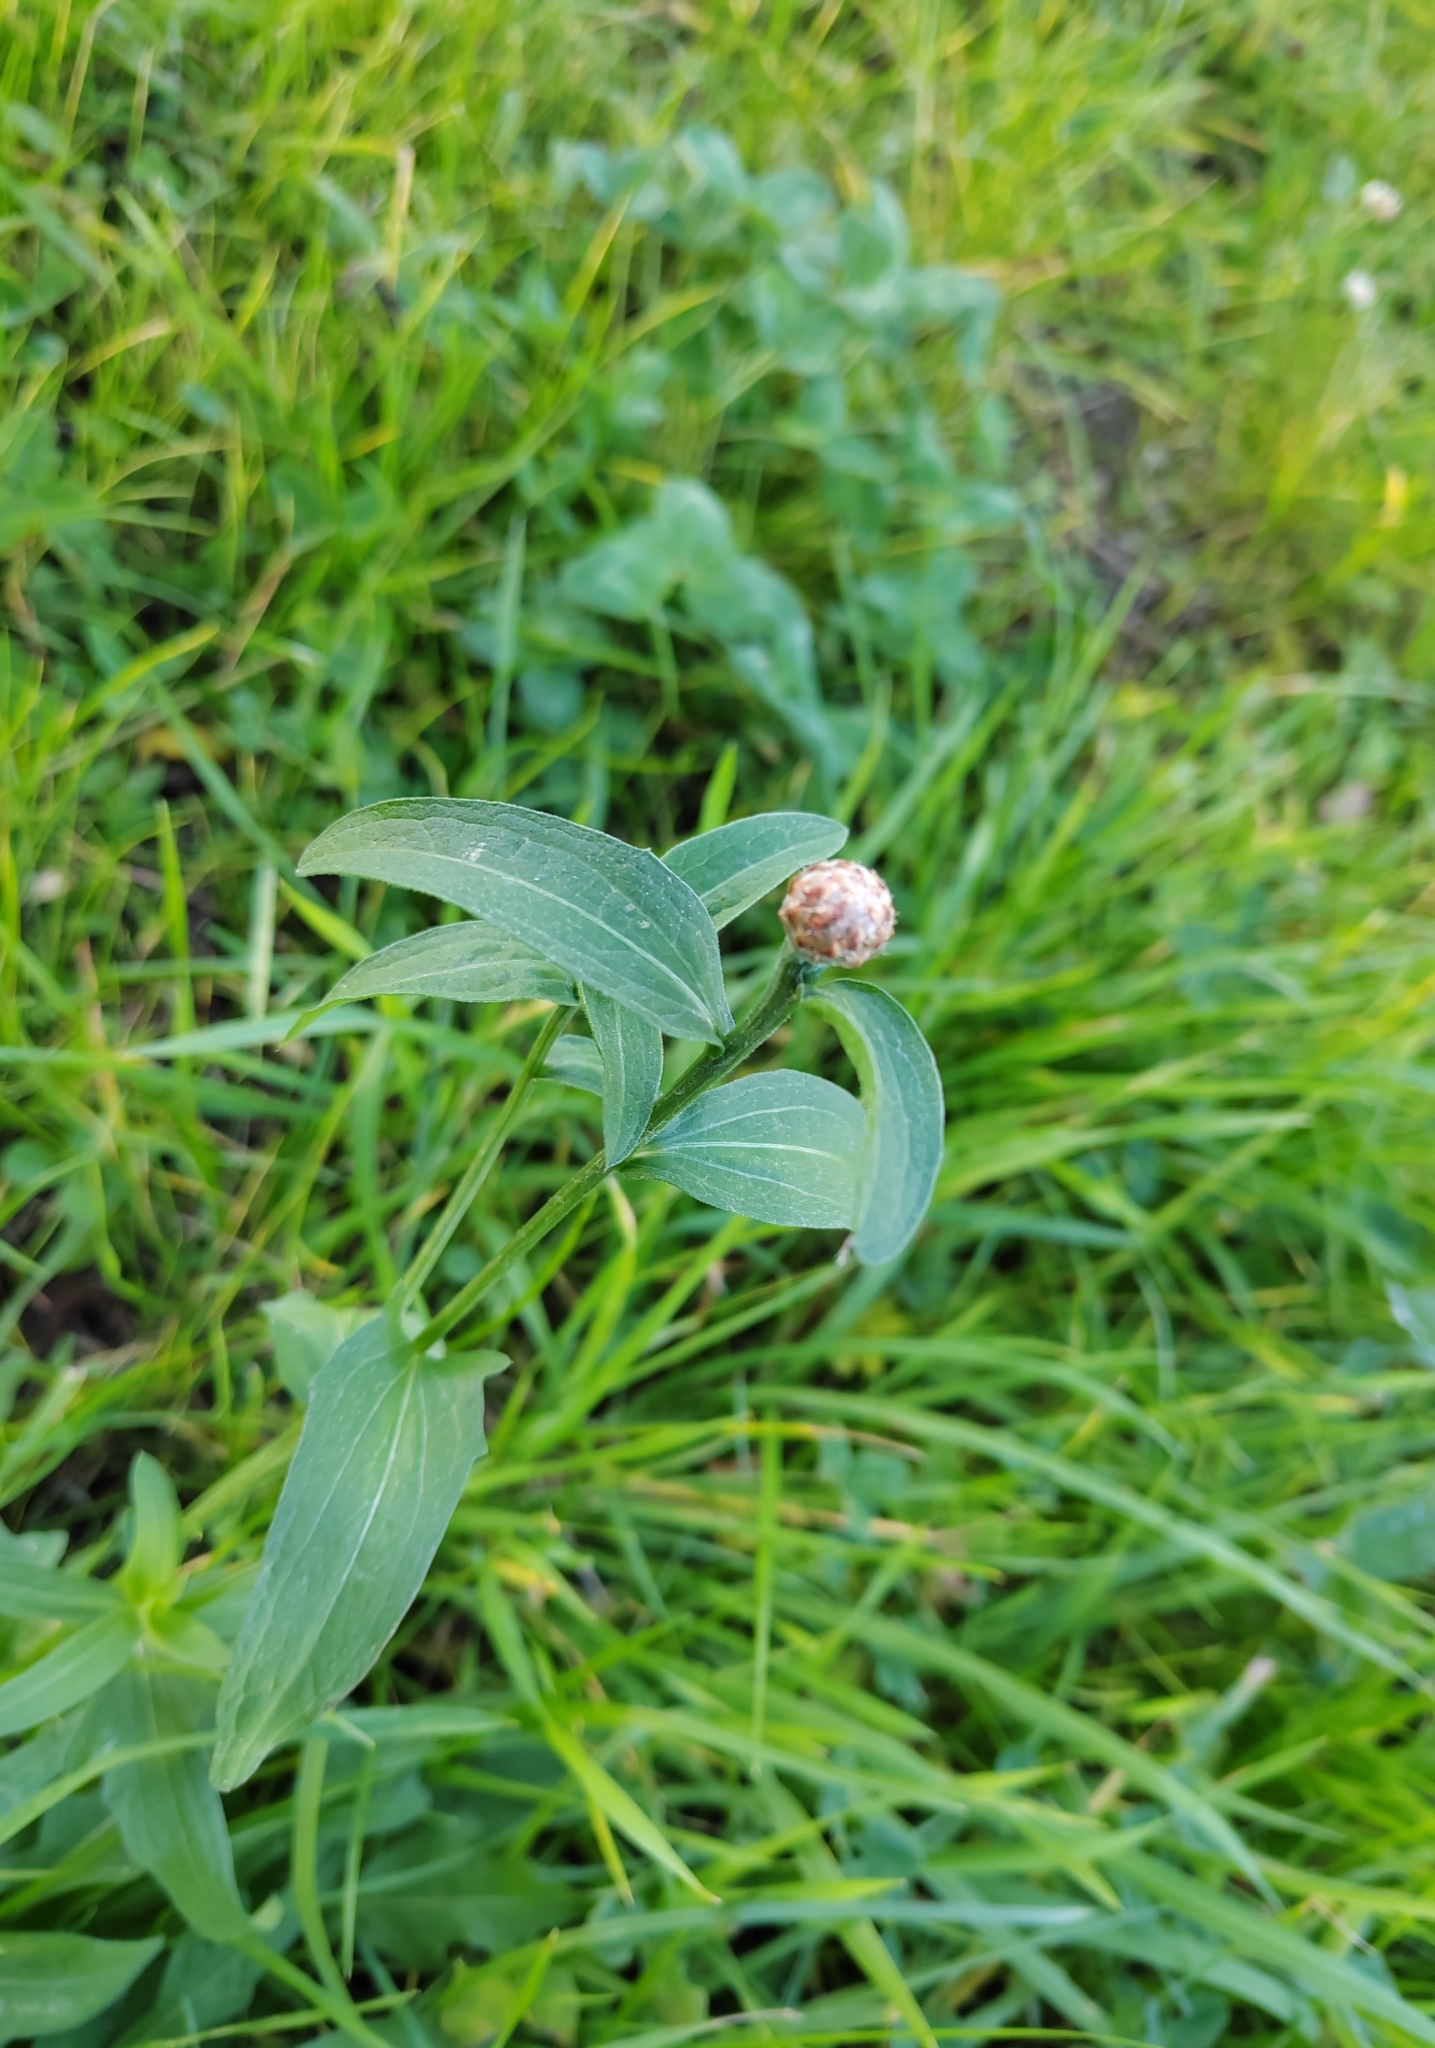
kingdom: Plantae
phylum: Tracheophyta
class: Magnoliopsida
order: Asterales
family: Asteraceae
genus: Centaurea
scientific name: Centaurea jacea
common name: Brown knapweed
